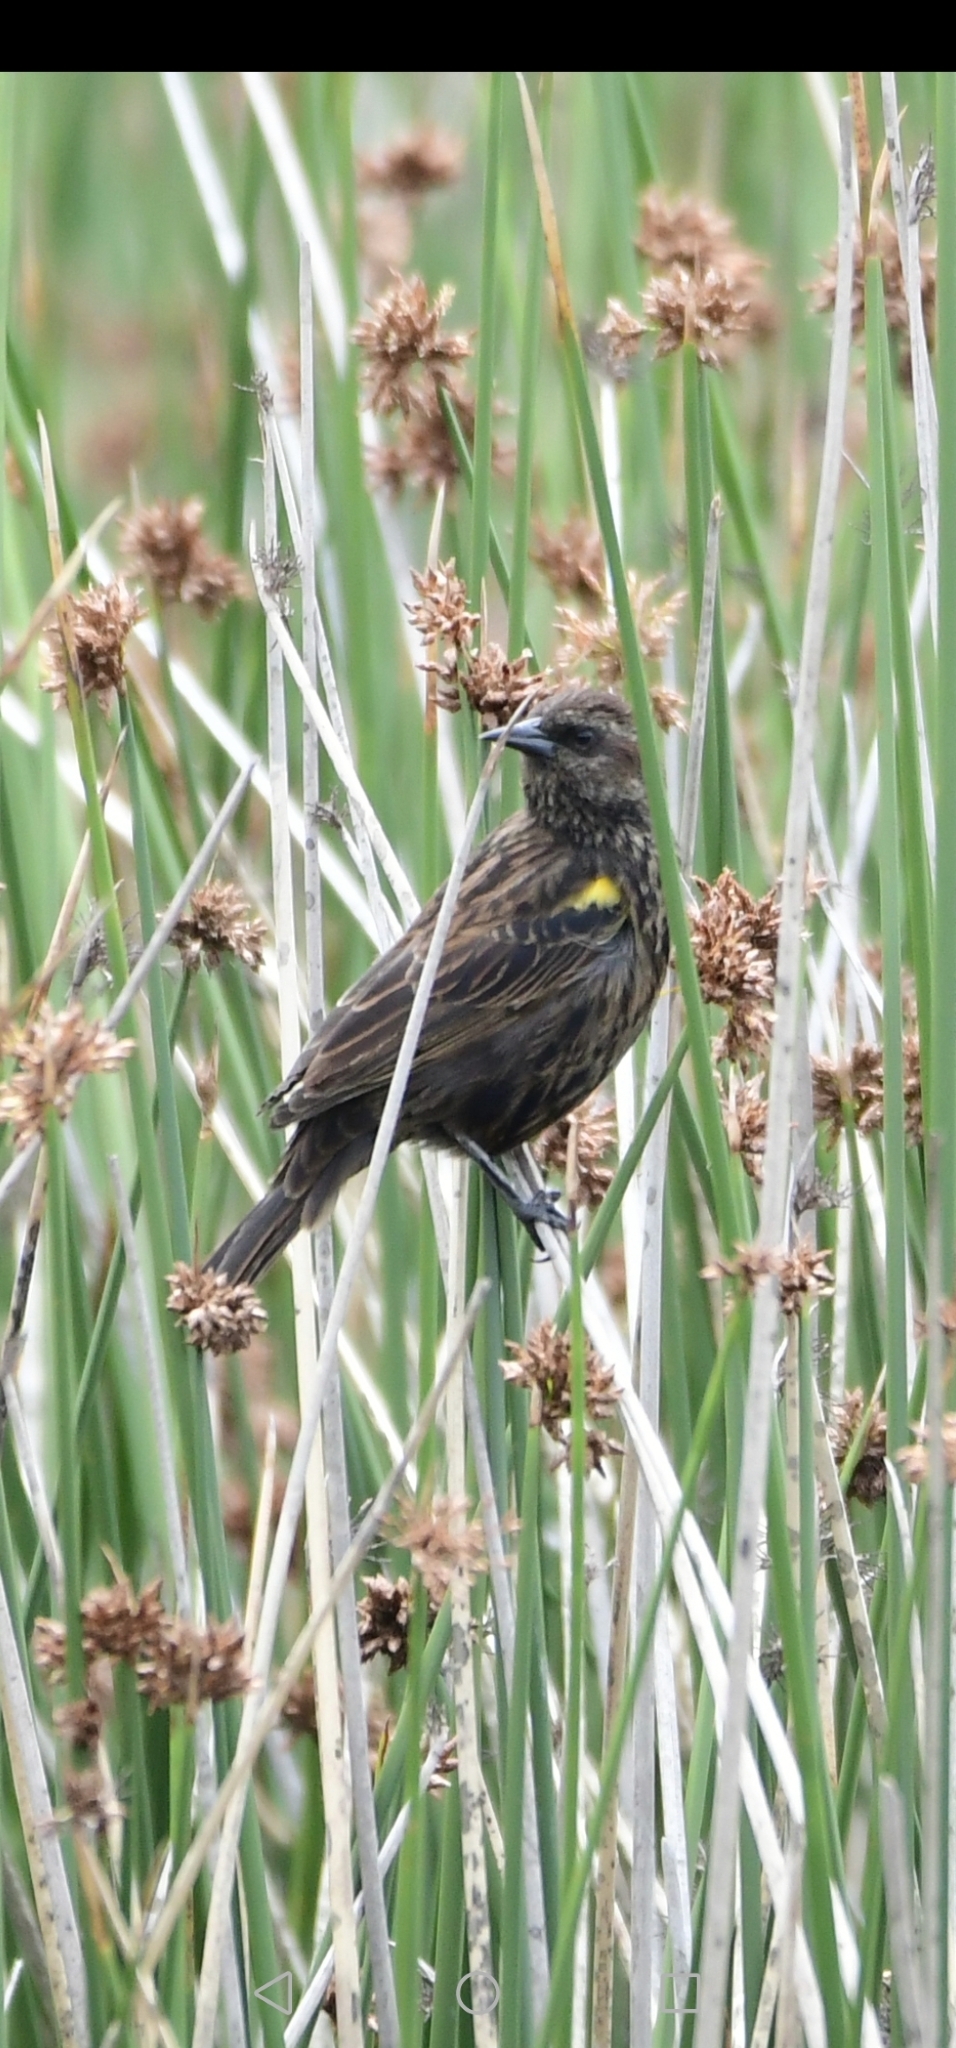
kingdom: Animalia
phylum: Chordata
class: Aves
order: Passeriformes
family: Icteridae
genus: Agelasticus
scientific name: Agelasticus thilius
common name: Yellow-winged blackbird
